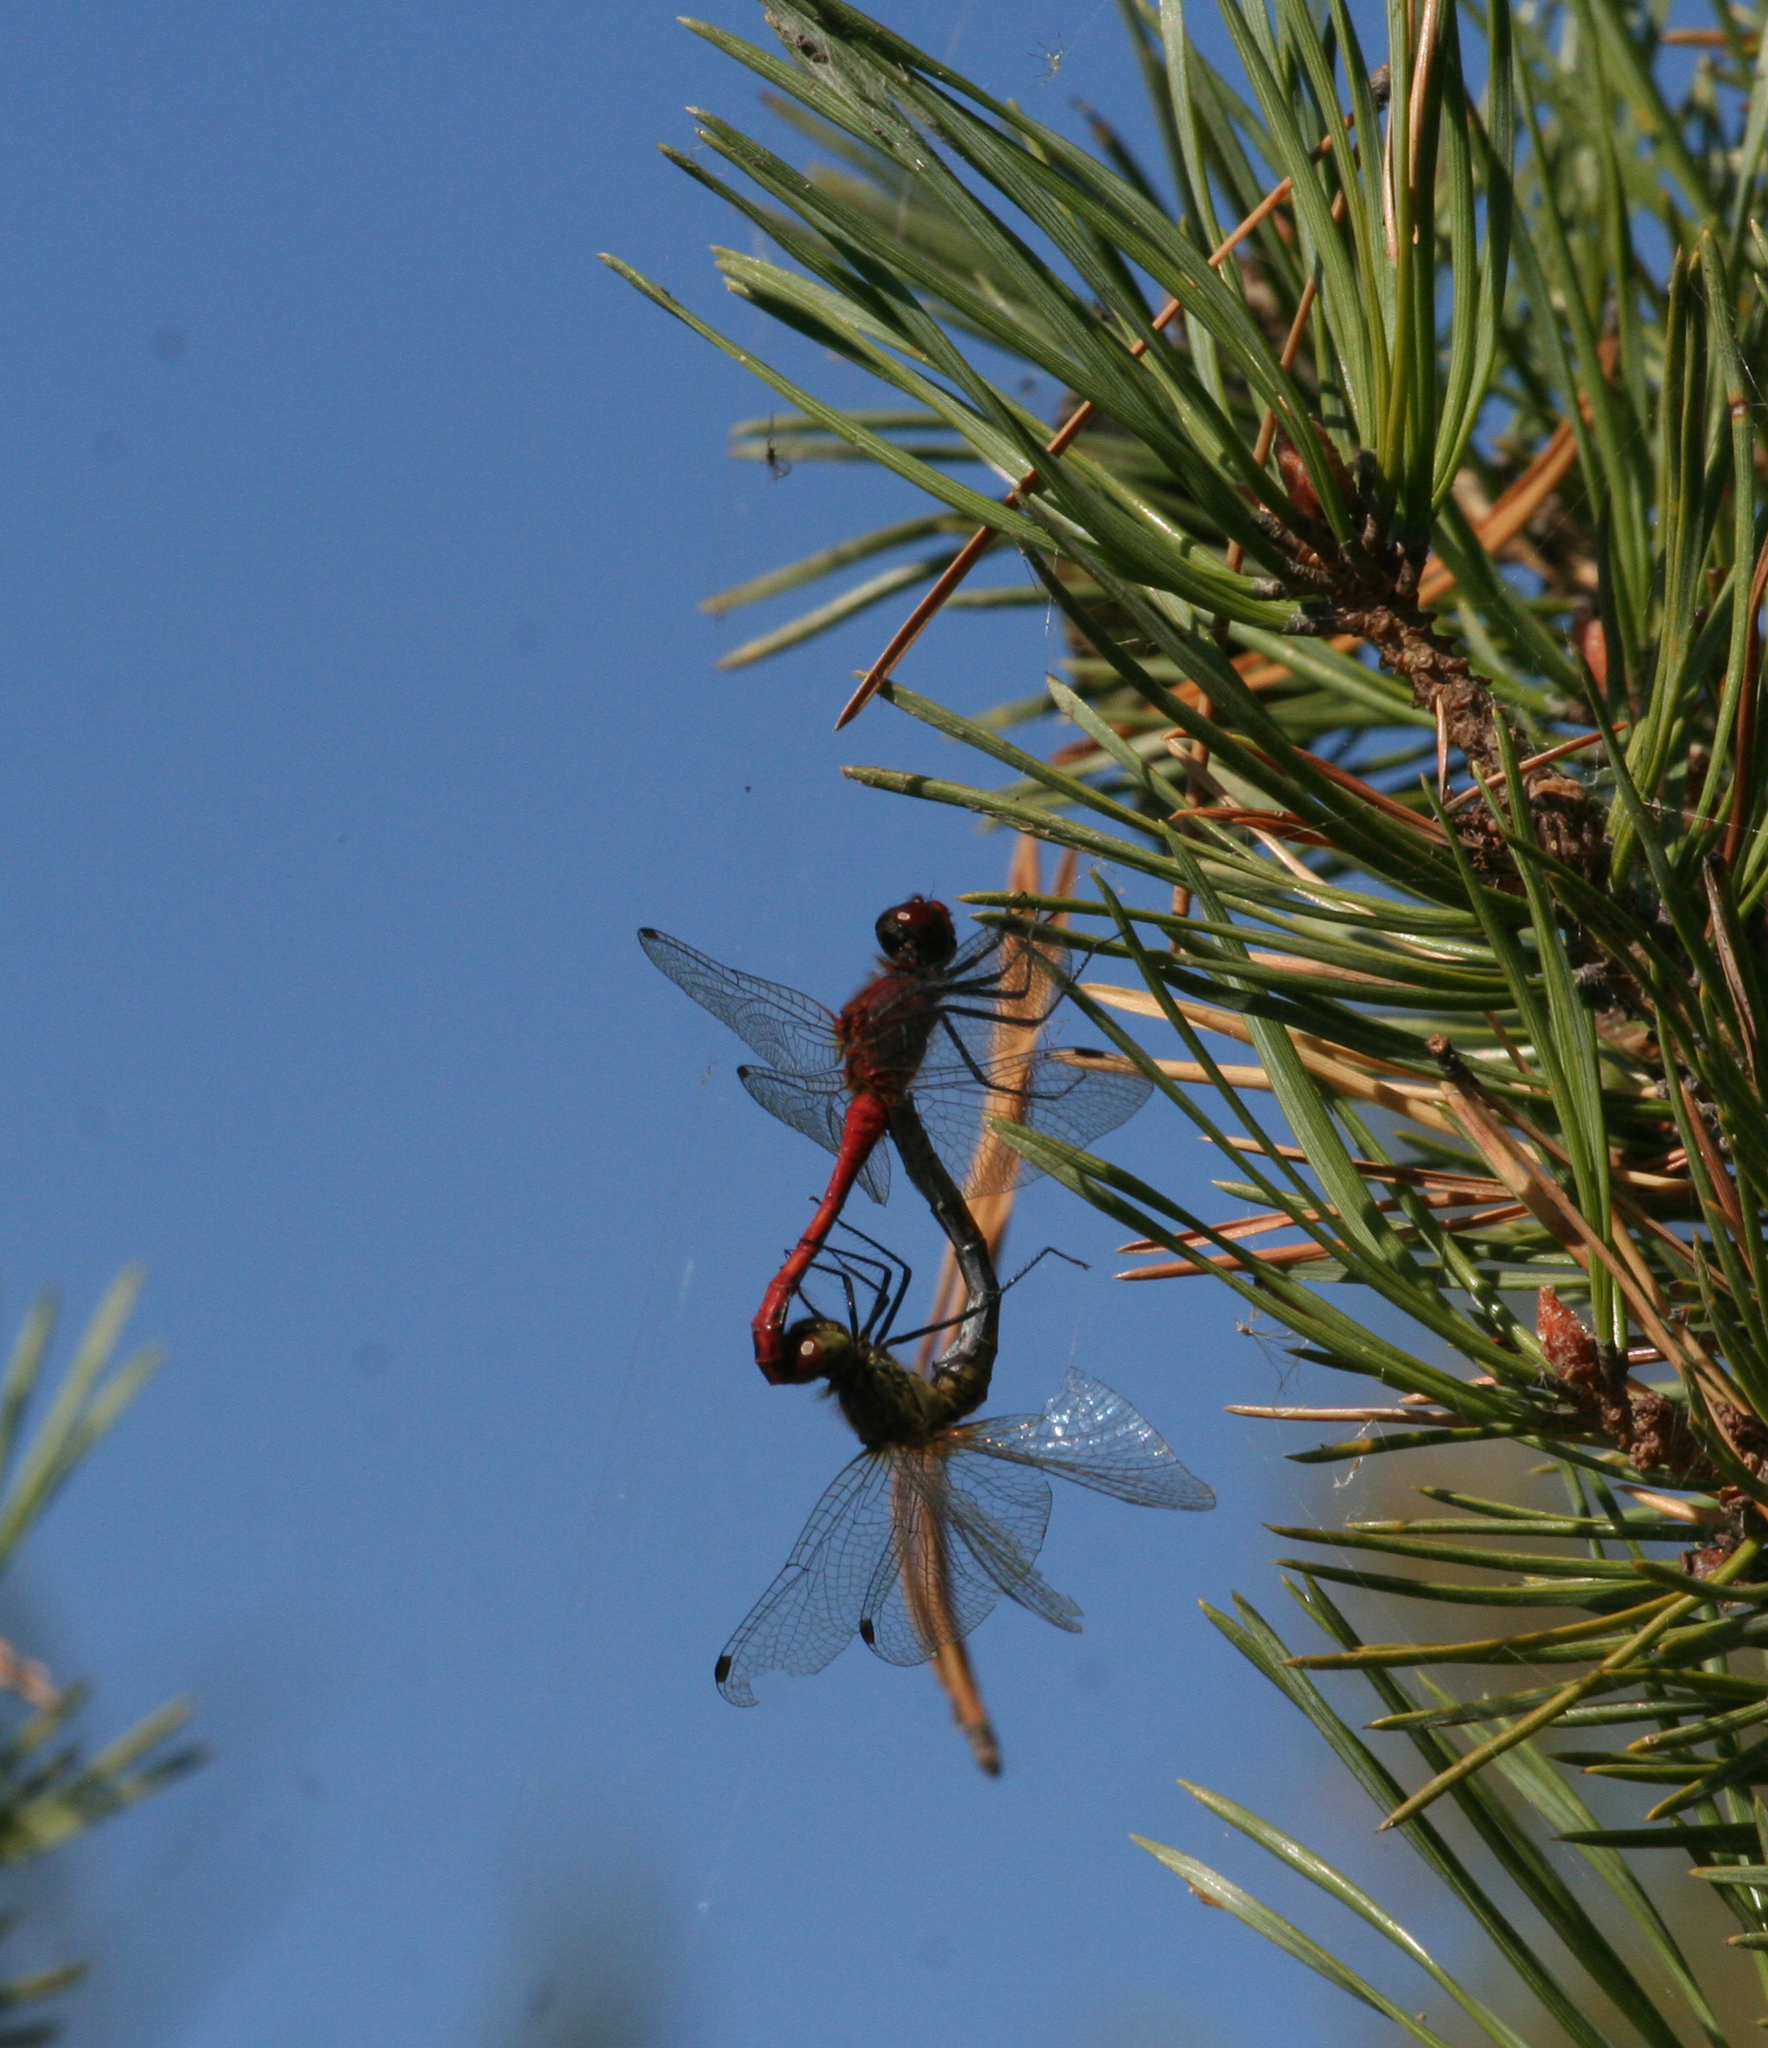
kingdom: Animalia
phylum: Arthropoda
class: Insecta
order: Odonata
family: Libellulidae
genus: Sympetrum
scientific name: Sympetrum sanguineum
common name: Ruddy darter
